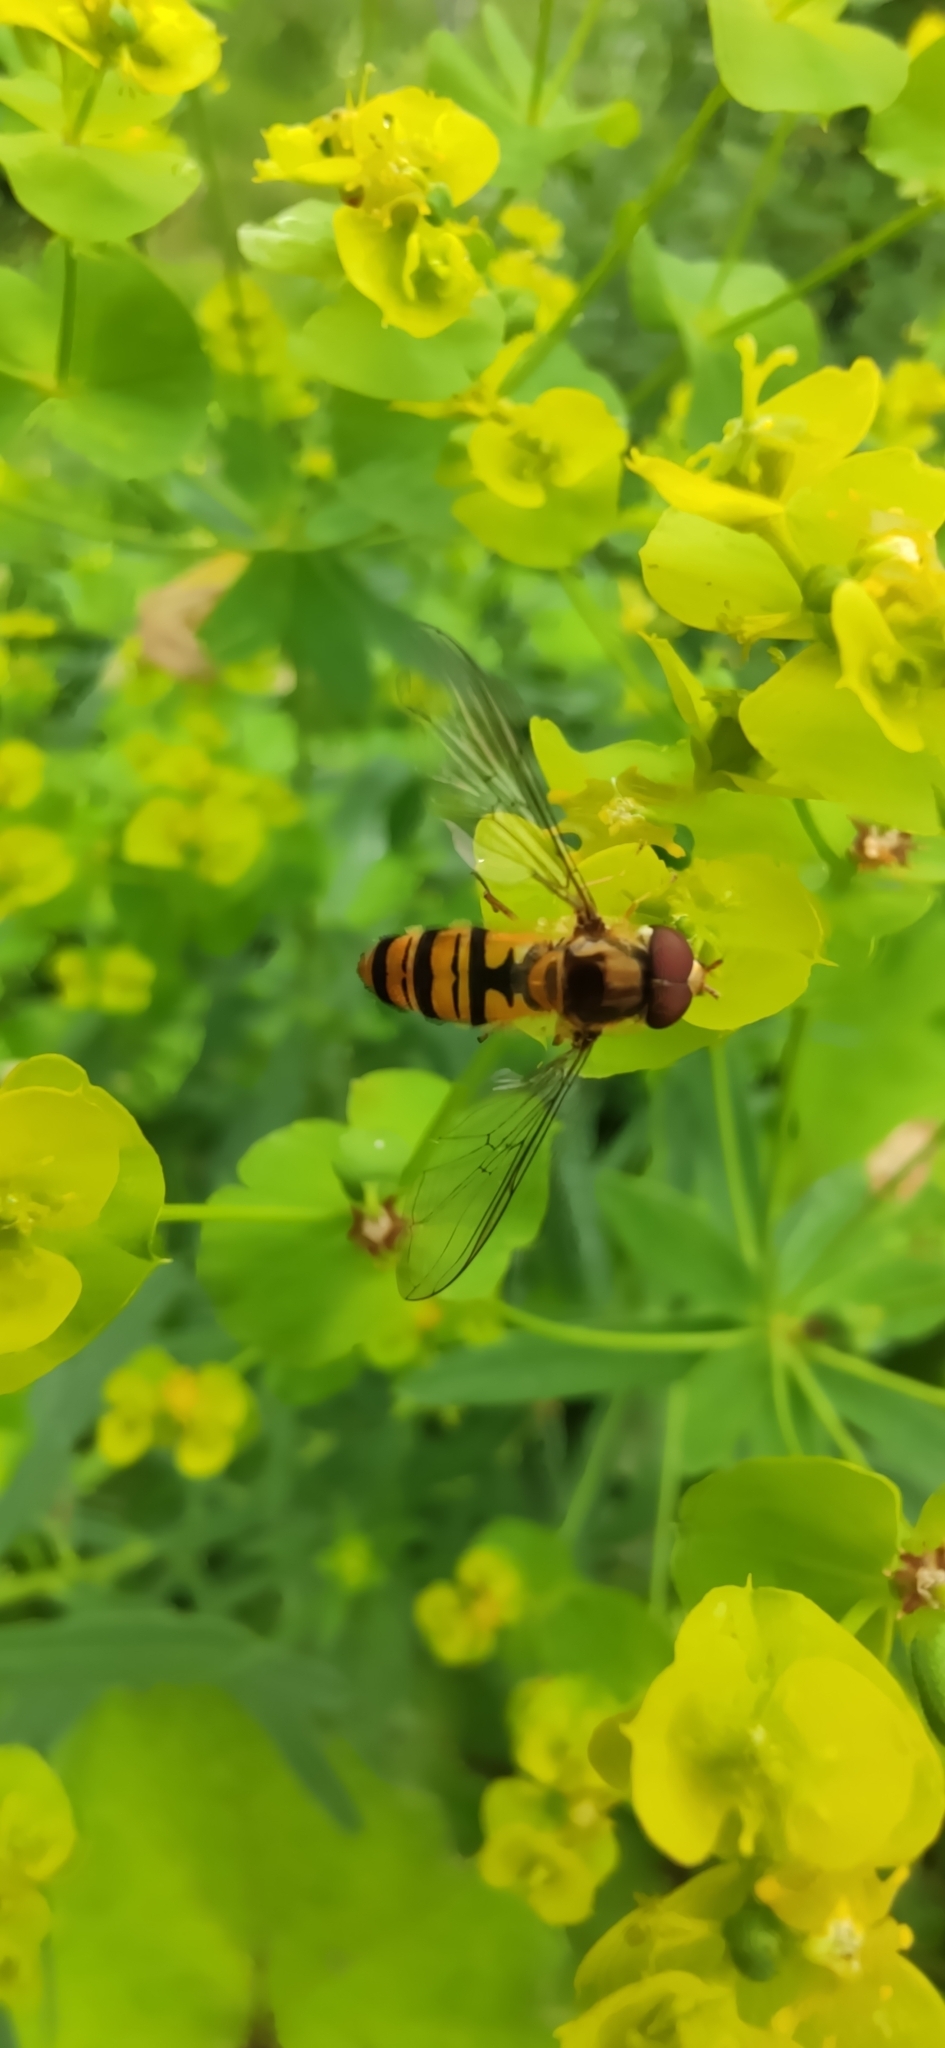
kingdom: Animalia
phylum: Arthropoda
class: Insecta
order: Diptera
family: Syrphidae
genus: Episyrphus
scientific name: Episyrphus balteatus
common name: Marmalade hoverfly
